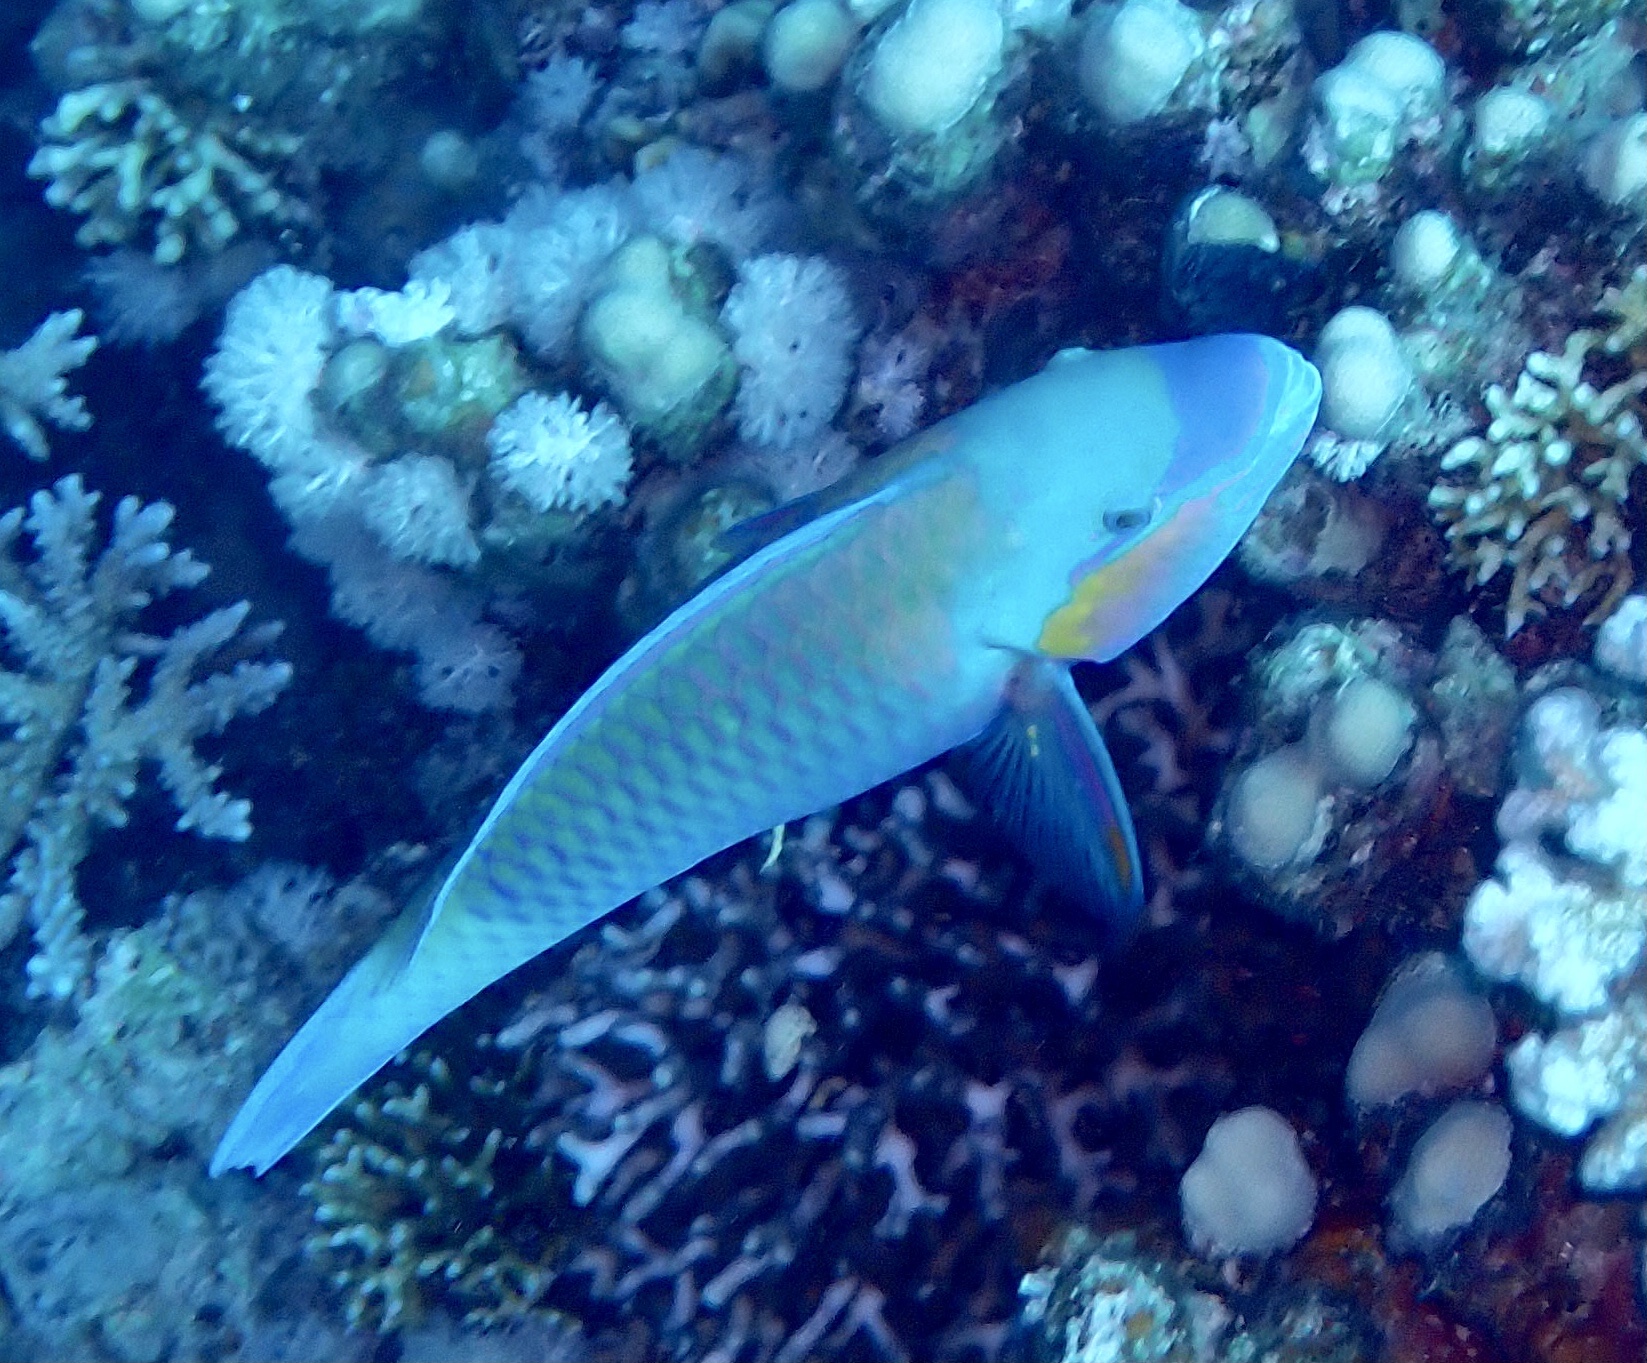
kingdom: Animalia
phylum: Chordata
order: Perciformes
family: Scaridae
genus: Chlorurus
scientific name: Chlorurus sordidus
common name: Bullethead parrotfish
